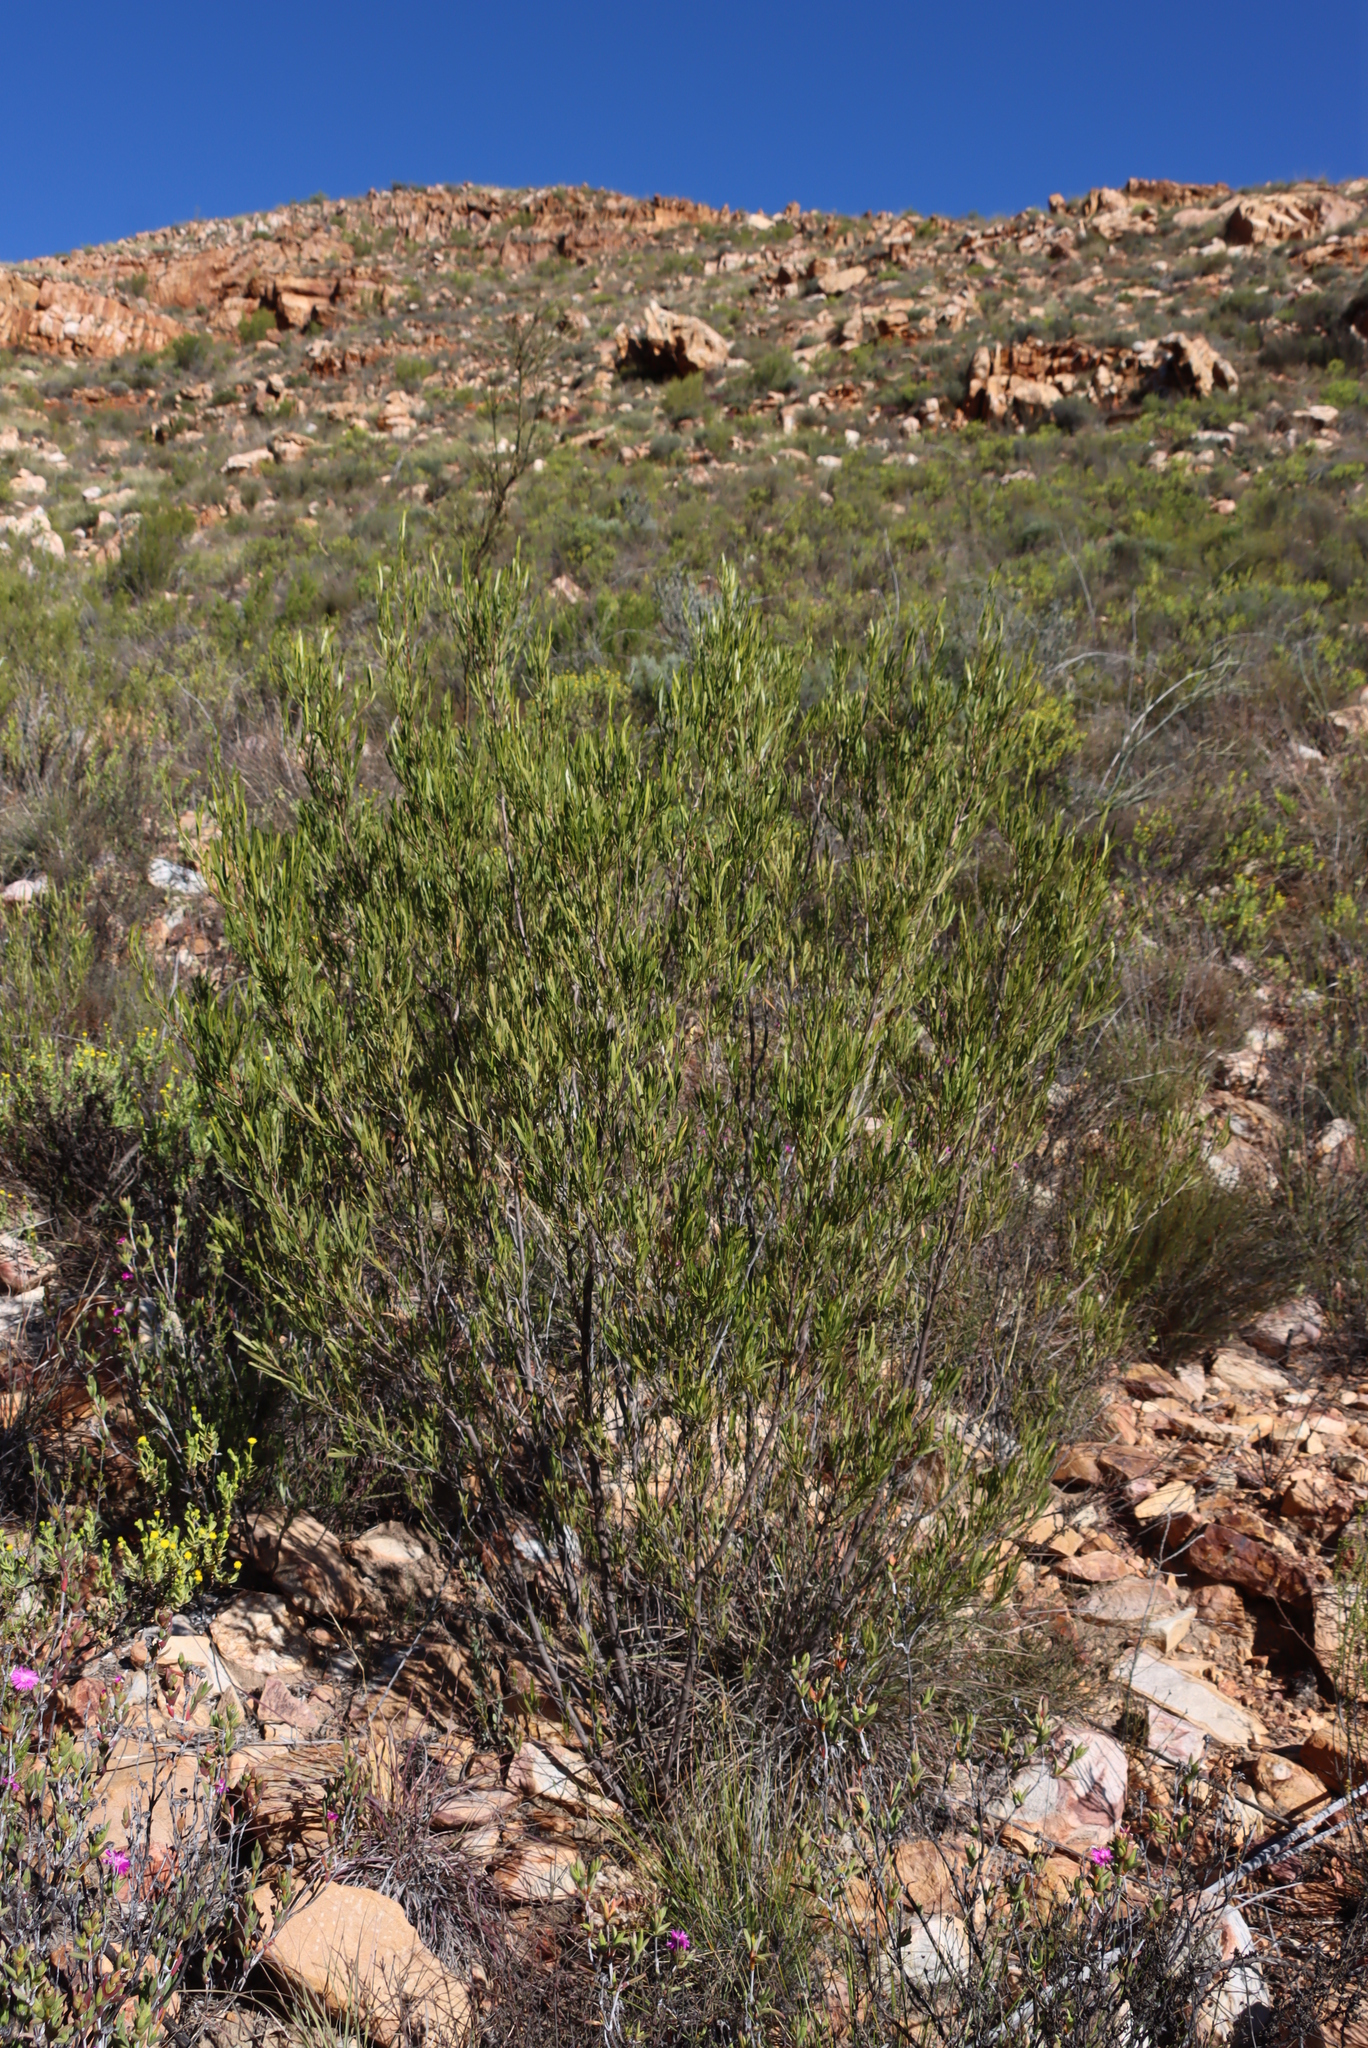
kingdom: Plantae
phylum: Tracheophyta
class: Magnoliopsida
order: Sapindales
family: Sapindaceae
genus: Dodonaea
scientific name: Dodonaea viscosa
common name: Hopbush
